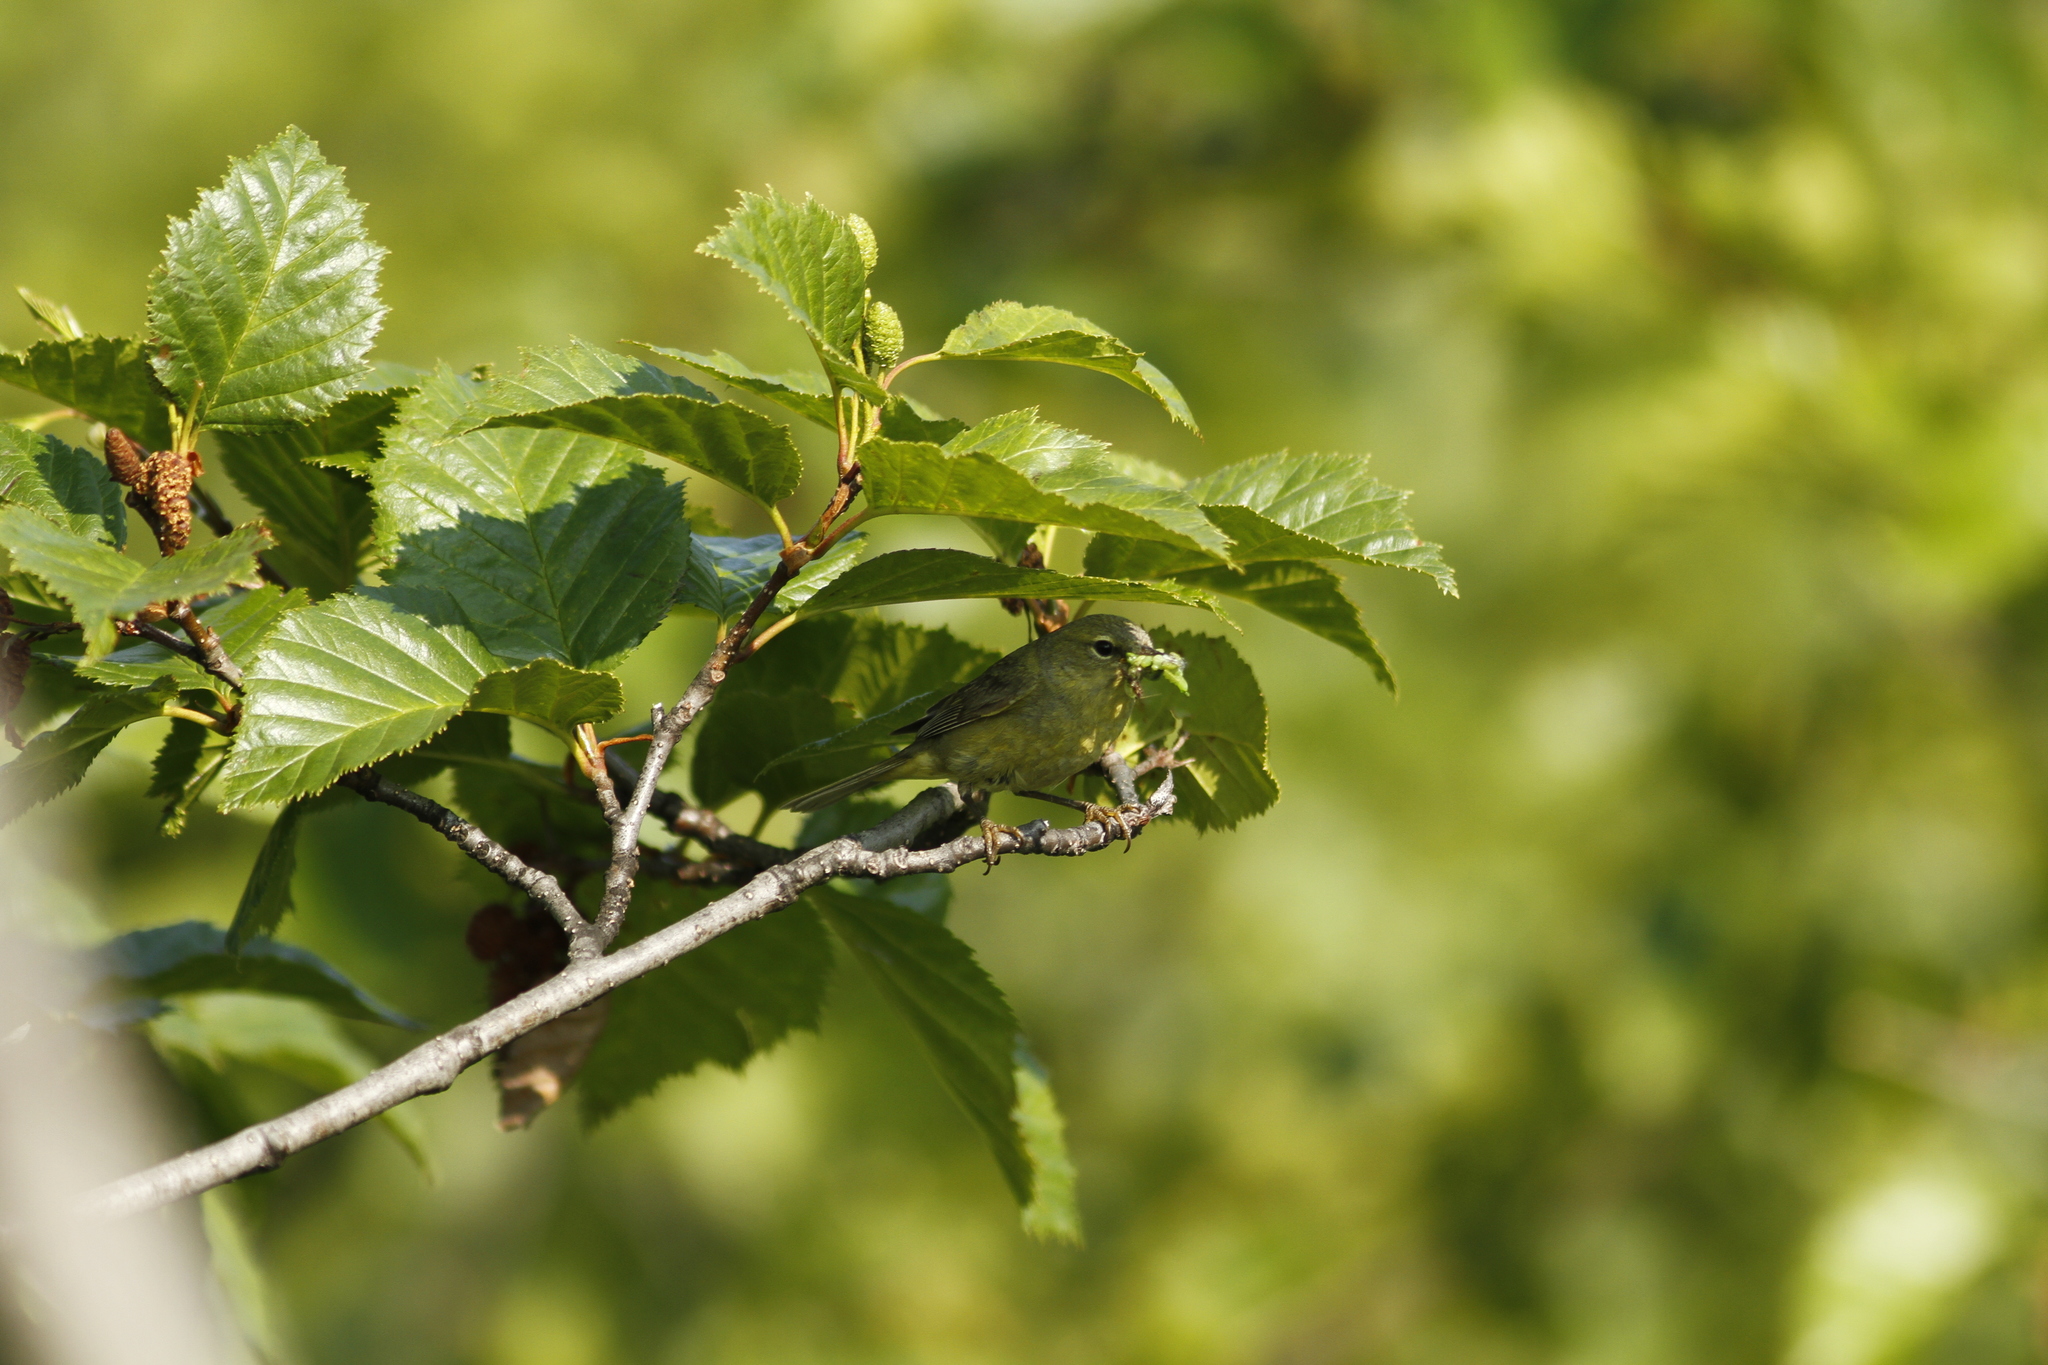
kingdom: Animalia
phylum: Chordata
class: Aves
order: Passeriformes
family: Parulidae
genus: Leiothlypis
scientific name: Leiothlypis celata
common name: Orange-crowned warbler
